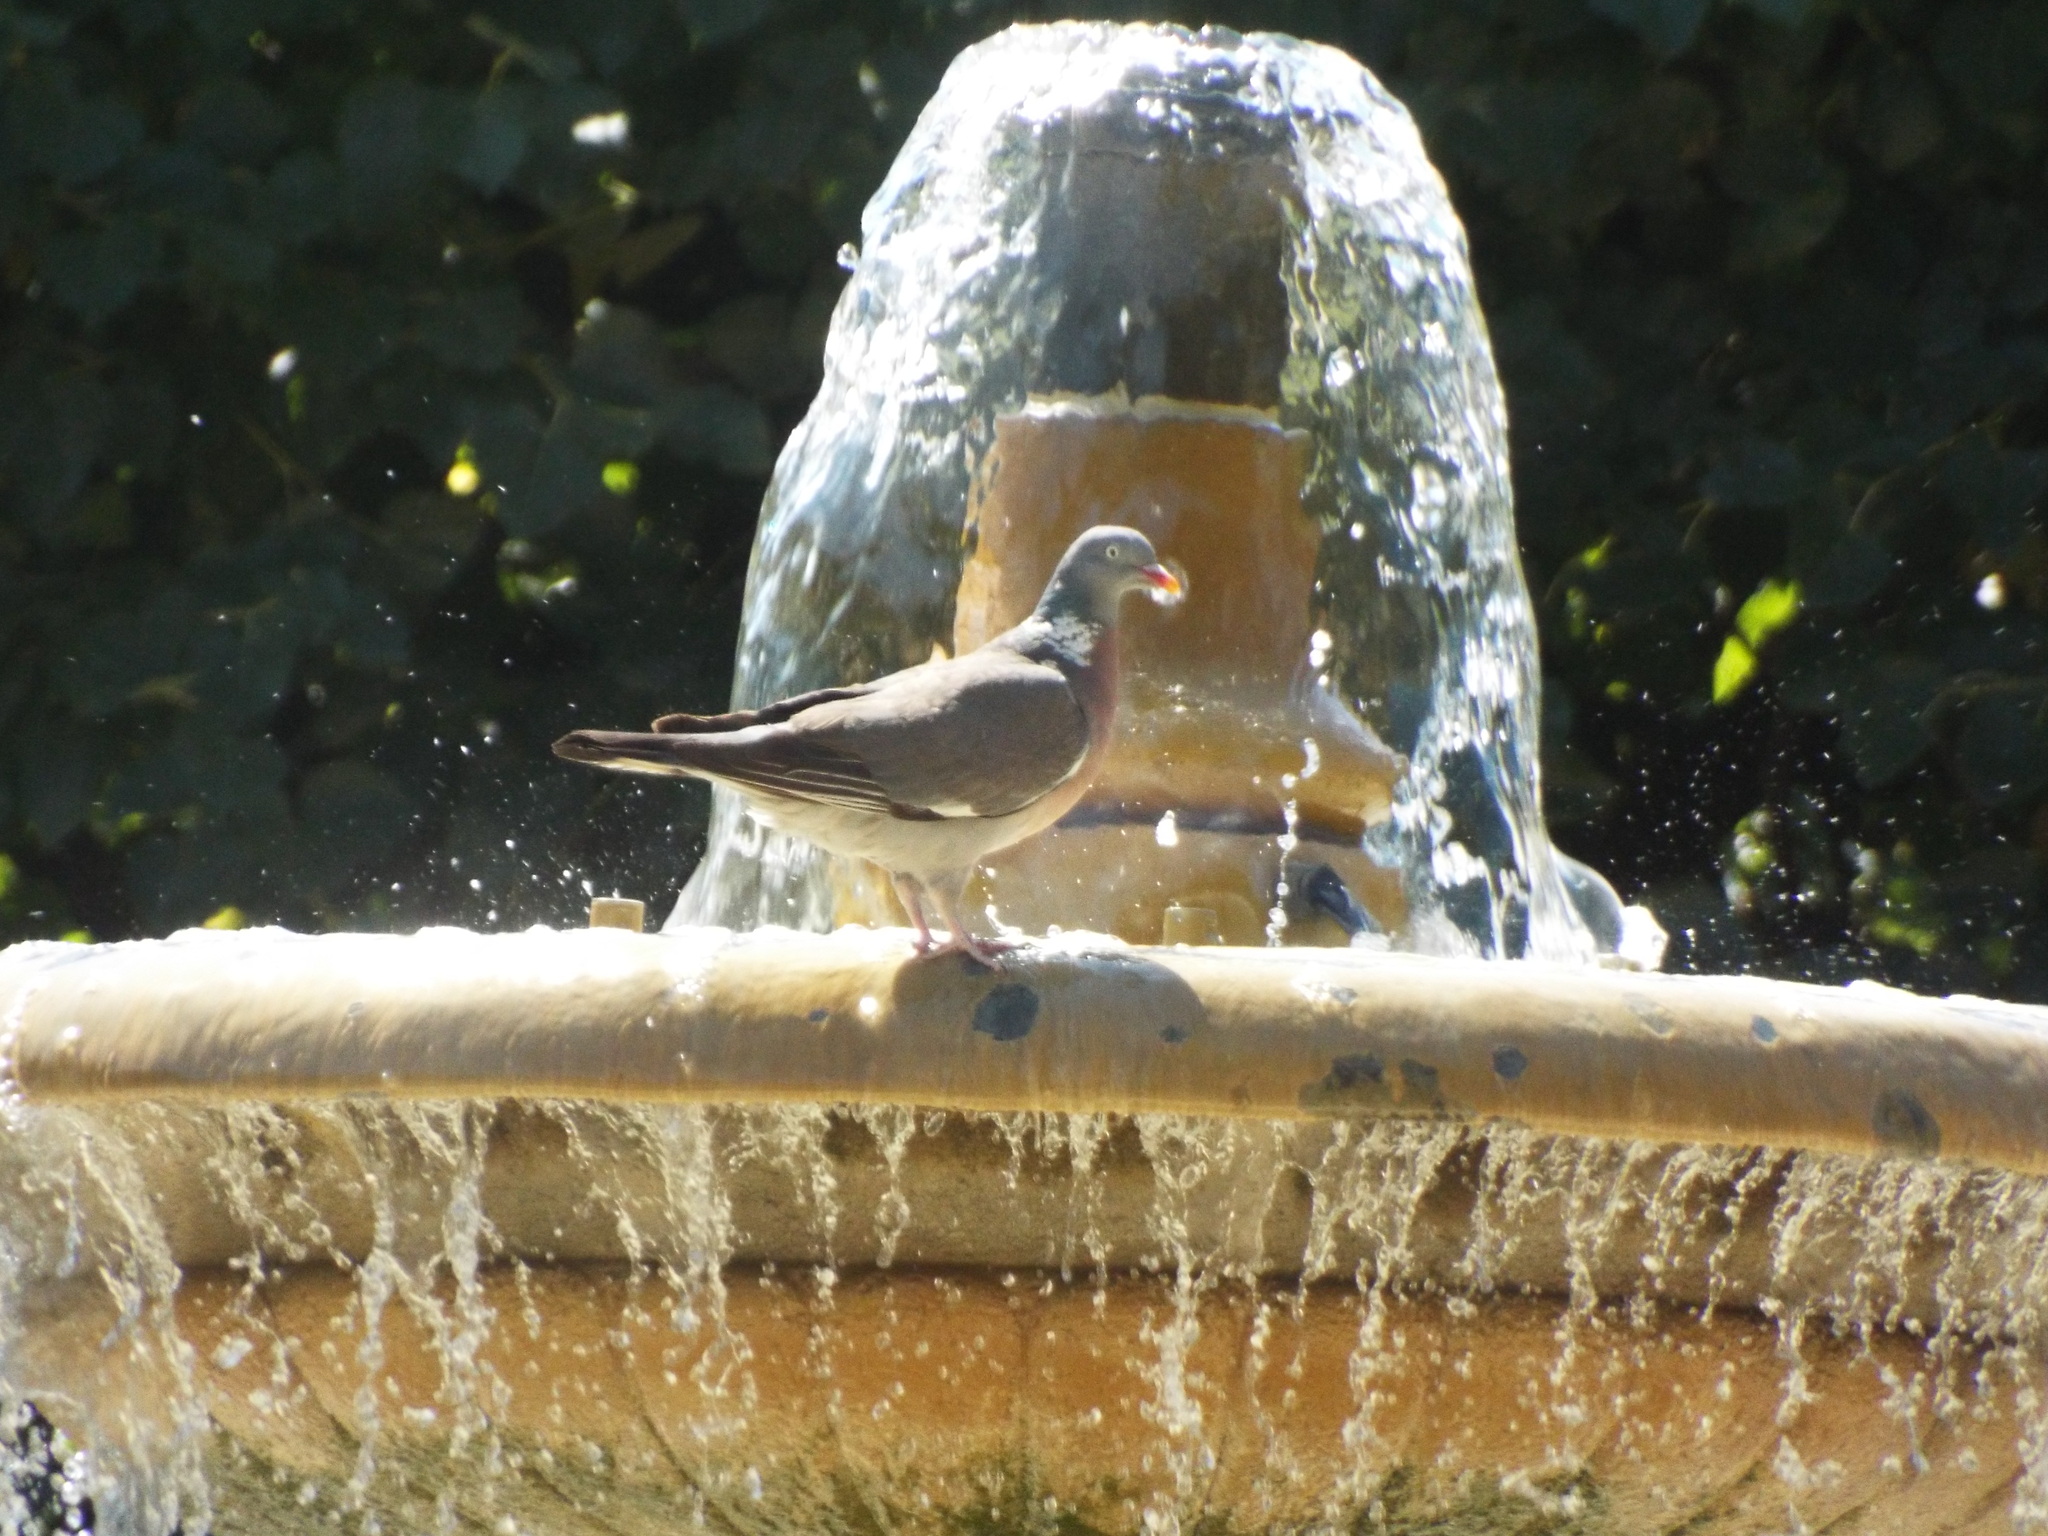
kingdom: Animalia
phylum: Chordata
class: Aves
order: Columbiformes
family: Columbidae
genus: Columba
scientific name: Columba palumbus
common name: Common wood pigeon
